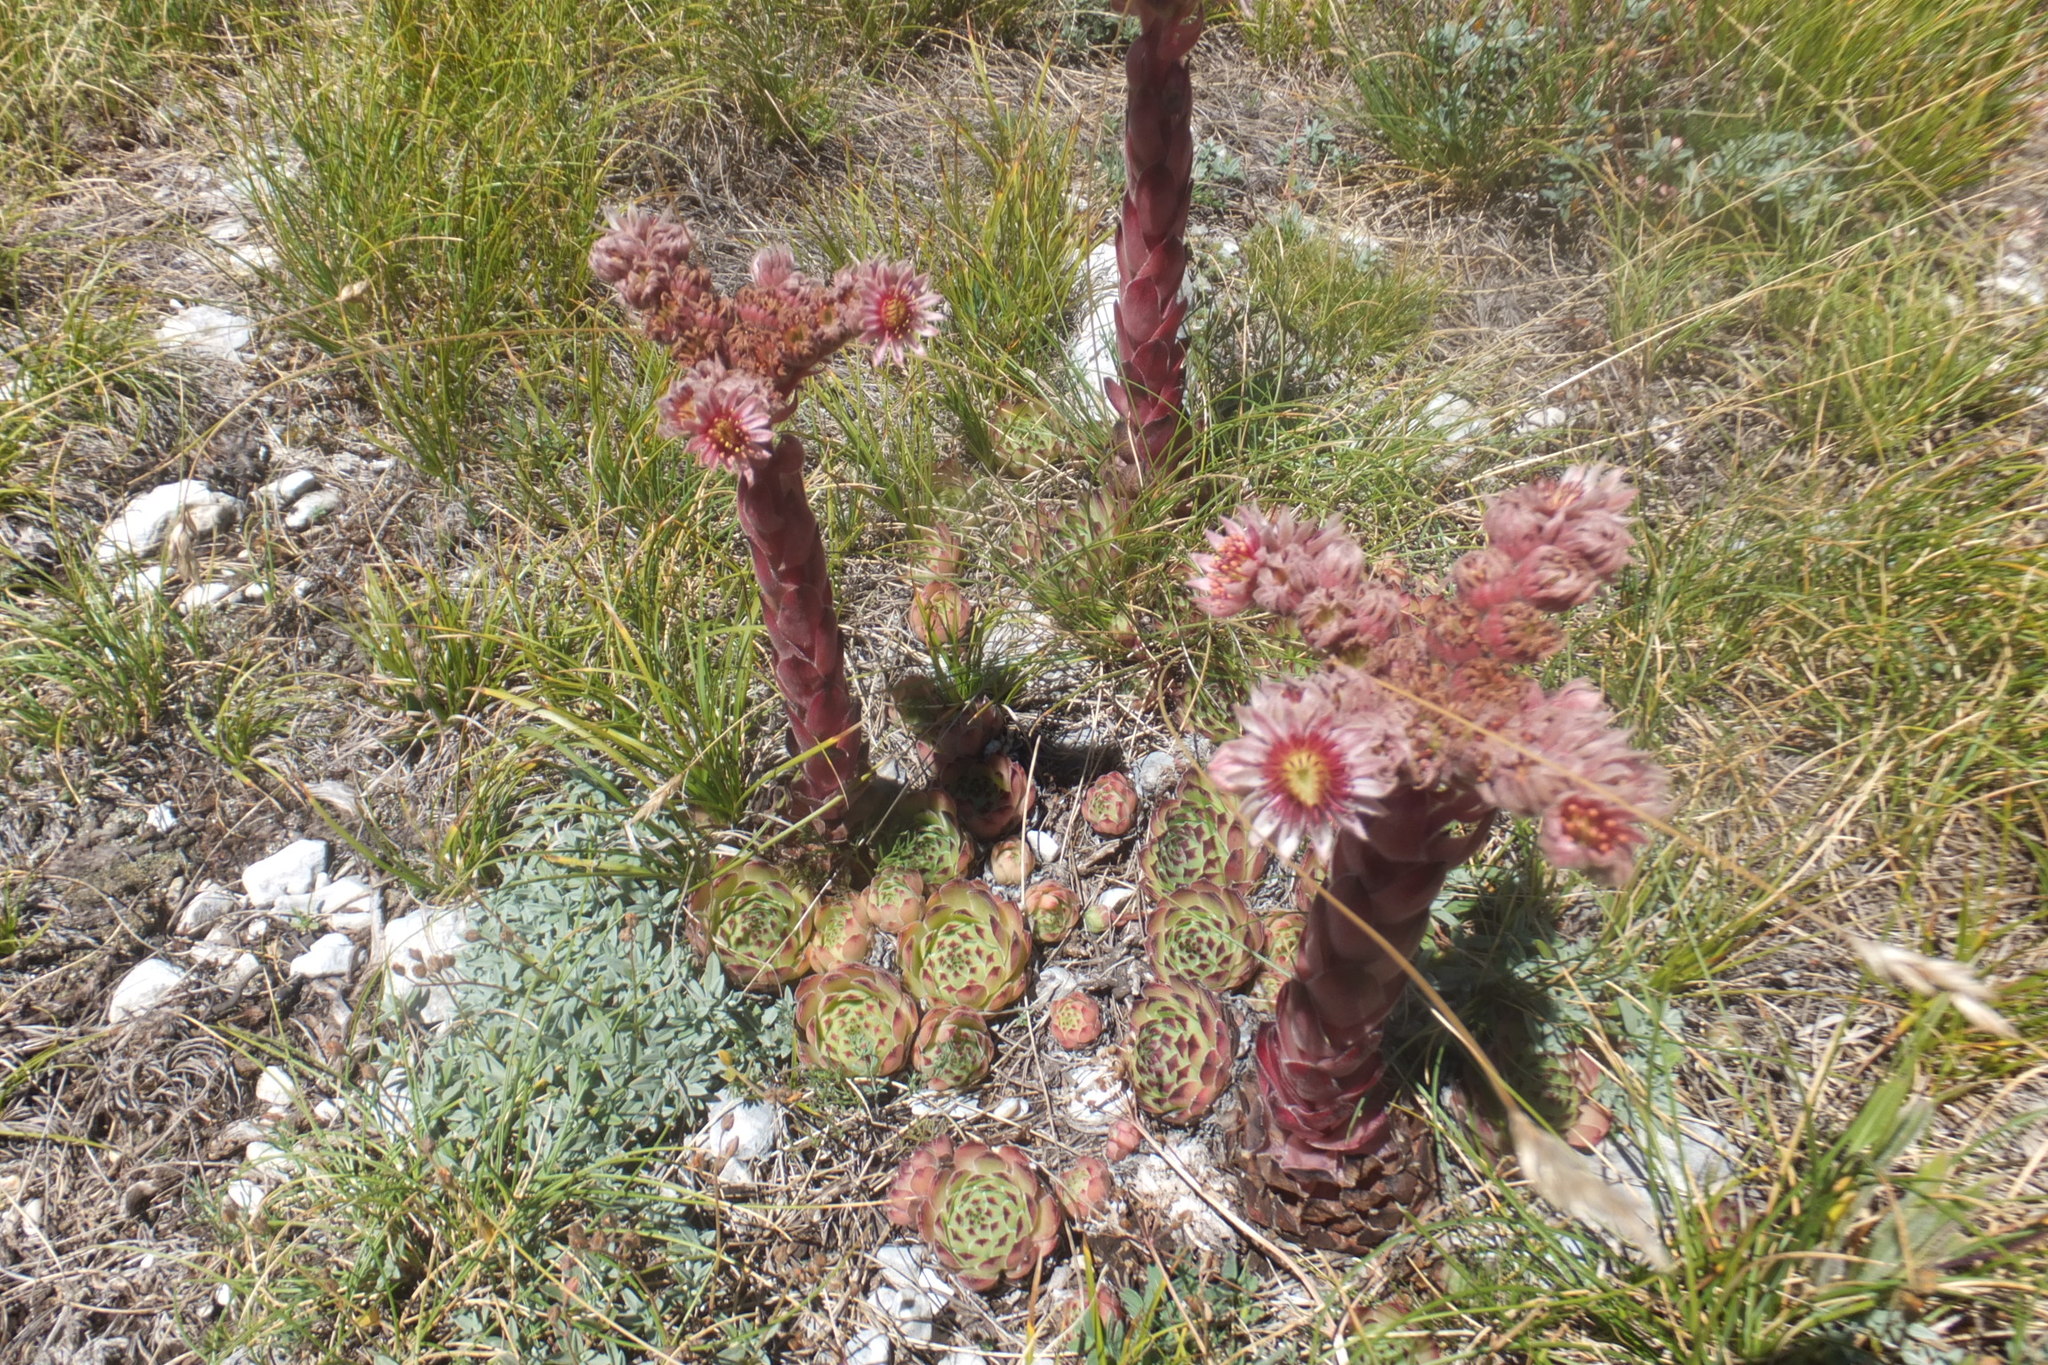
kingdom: Plantae
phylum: Tracheophyta
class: Magnoliopsida
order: Saxifragales
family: Crassulaceae
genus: Sempervivum
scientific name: Sempervivum tectorum
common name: House-leek
